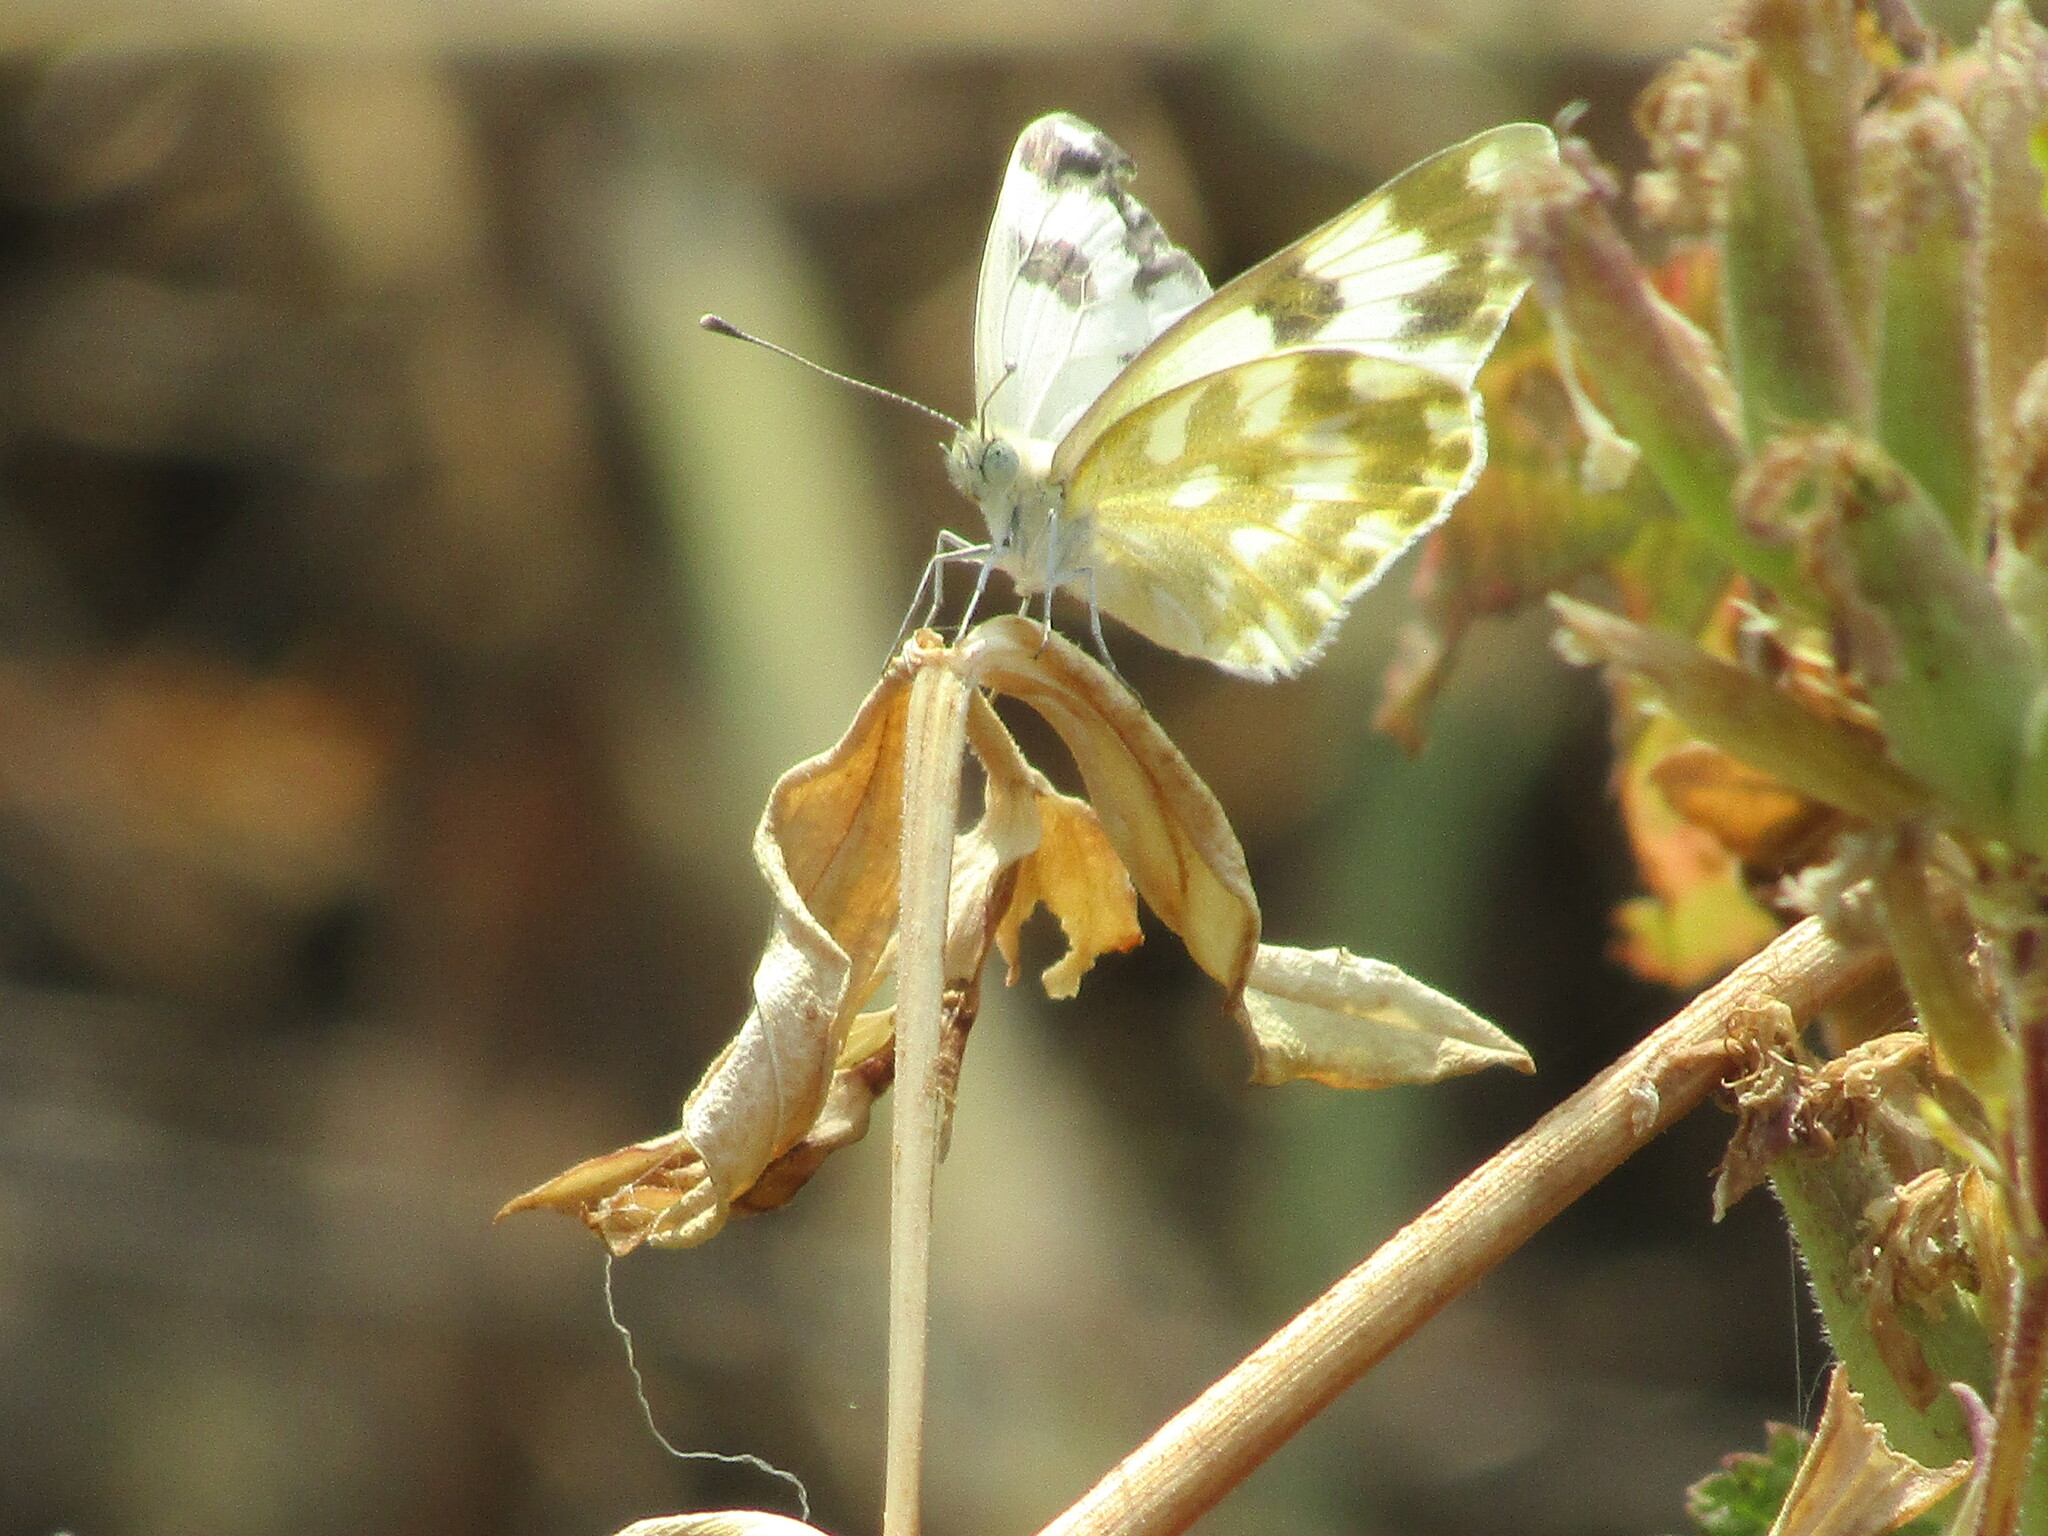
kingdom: Animalia
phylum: Arthropoda
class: Insecta
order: Lepidoptera
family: Pieridae
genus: Pontia
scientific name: Pontia edusa
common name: Eastern bath white
